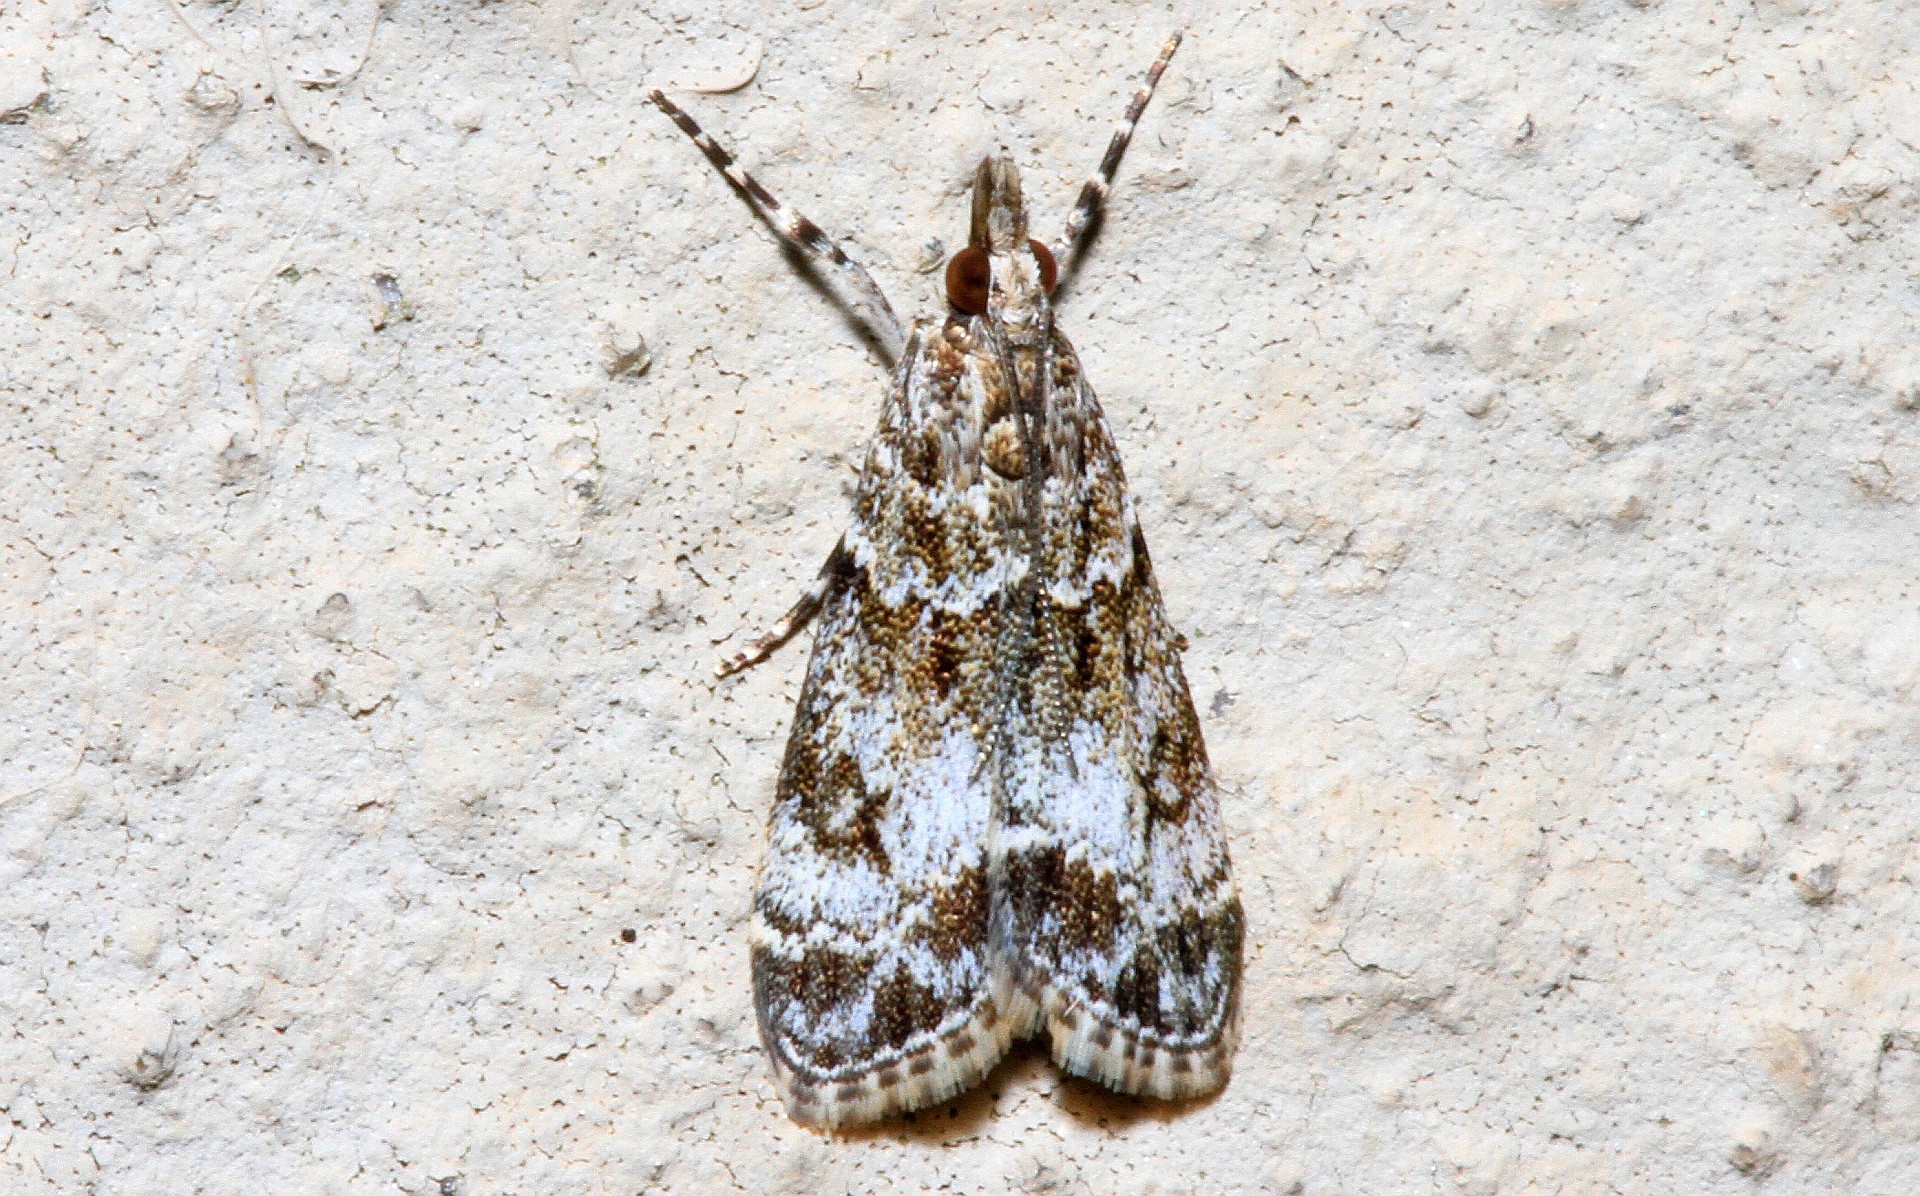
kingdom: Animalia
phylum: Arthropoda
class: Insecta
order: Lepidoptera
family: Crambidae
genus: Eudonia
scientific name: Eudonia lacustrata
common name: Little grey
